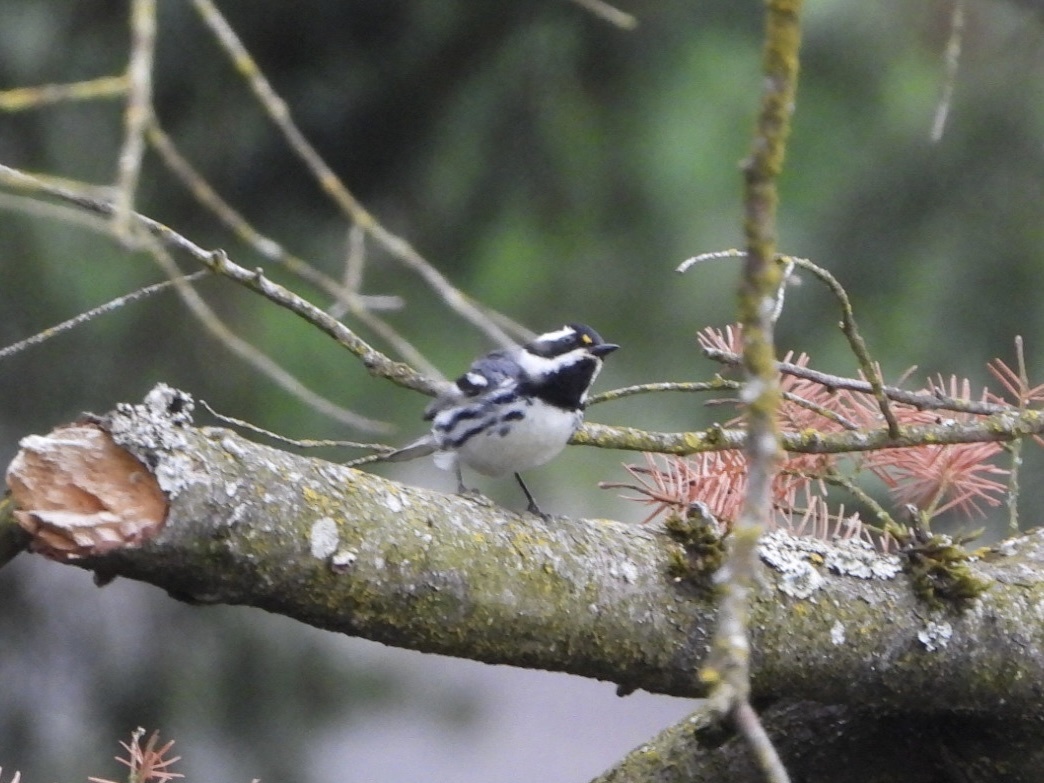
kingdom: Animalia
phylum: Chordata
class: Aves
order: Passeriformes
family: Parulidae
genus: Setophaga
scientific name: Setophaga nigrescens
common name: Black-throated gray warbler
